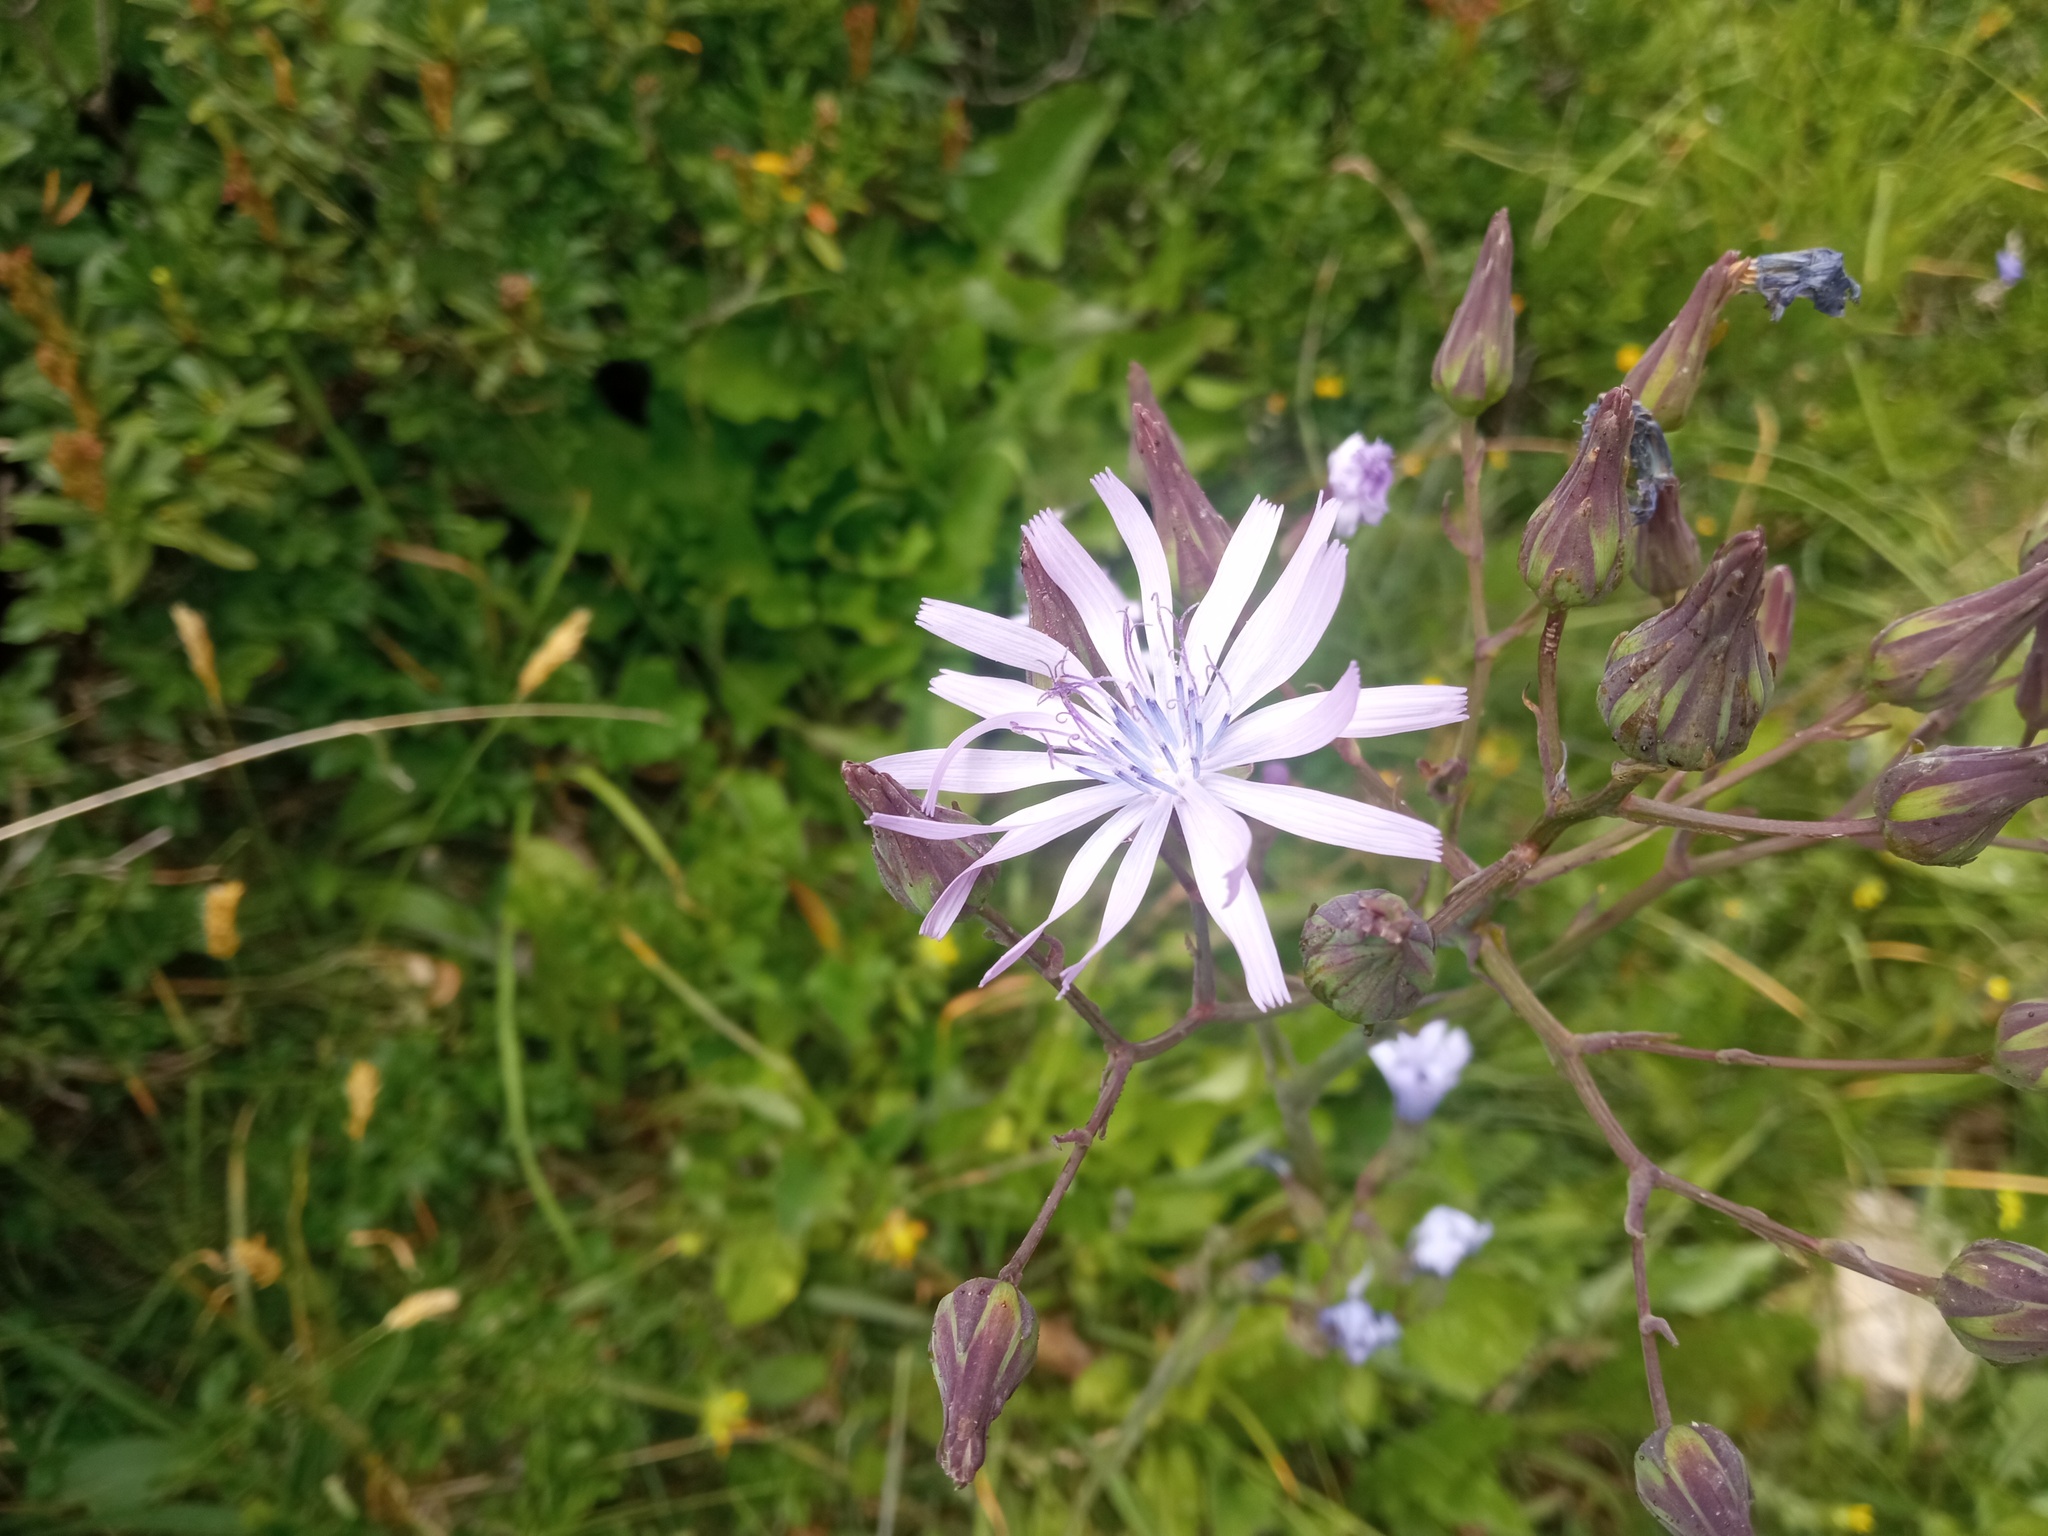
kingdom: Plantae
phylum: Tracheophyta
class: Magnoliopsida
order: Asterales
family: Asteraceae
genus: Lactuca
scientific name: Lactuca plumieri
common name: Hairless blue-sow-thistle
